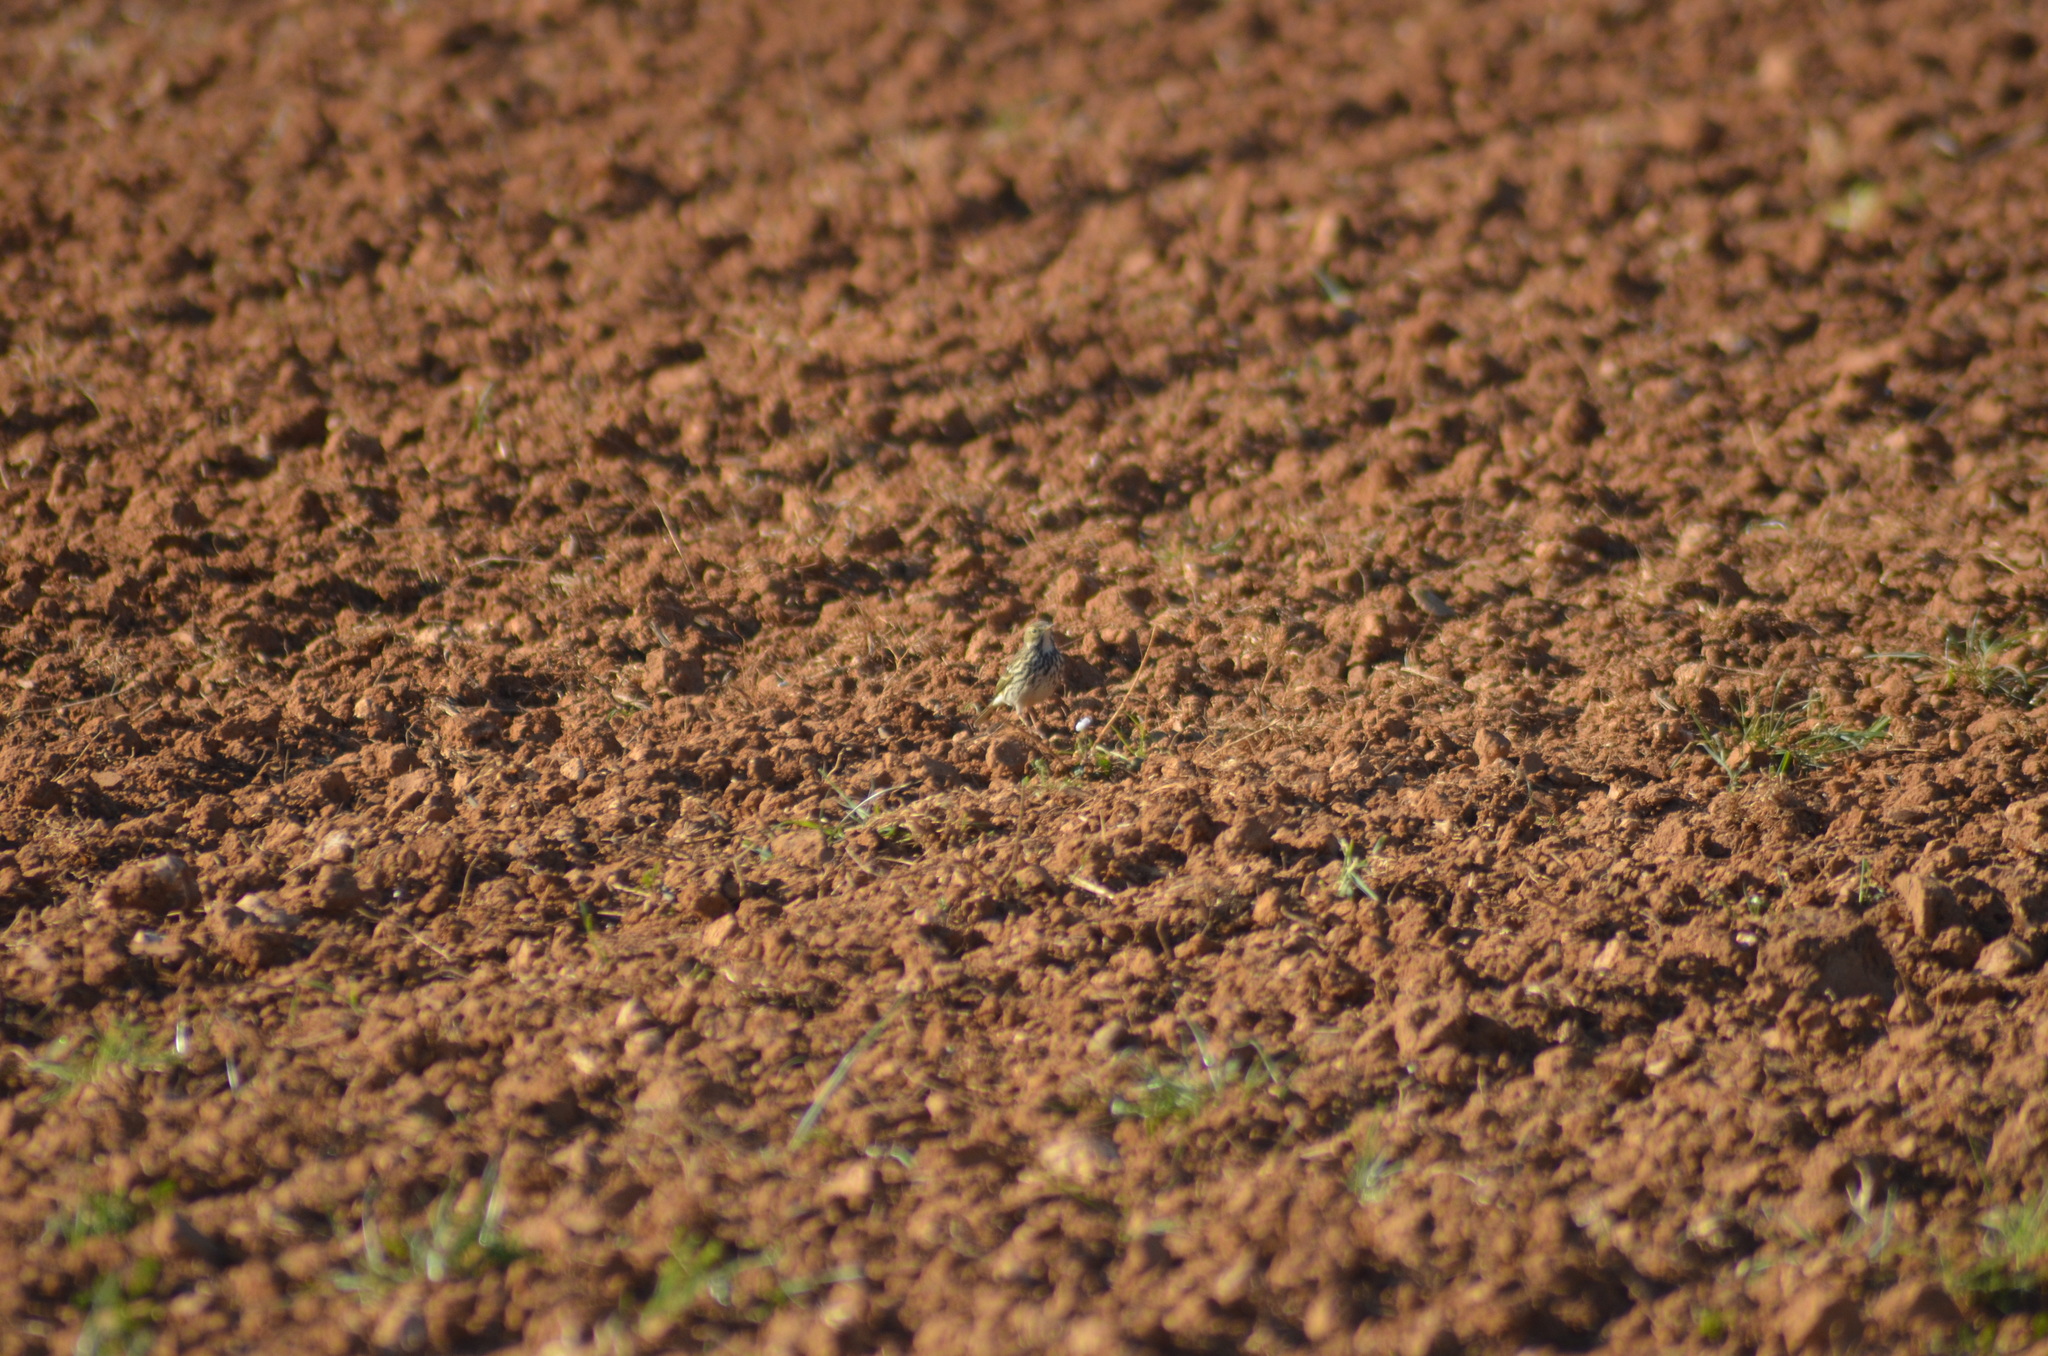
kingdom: Animalia
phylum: Chordata
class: Aves
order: Passeriformes
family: Motacillidae
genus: Anthus
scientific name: Anthus pratensis
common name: Meadow pipit
